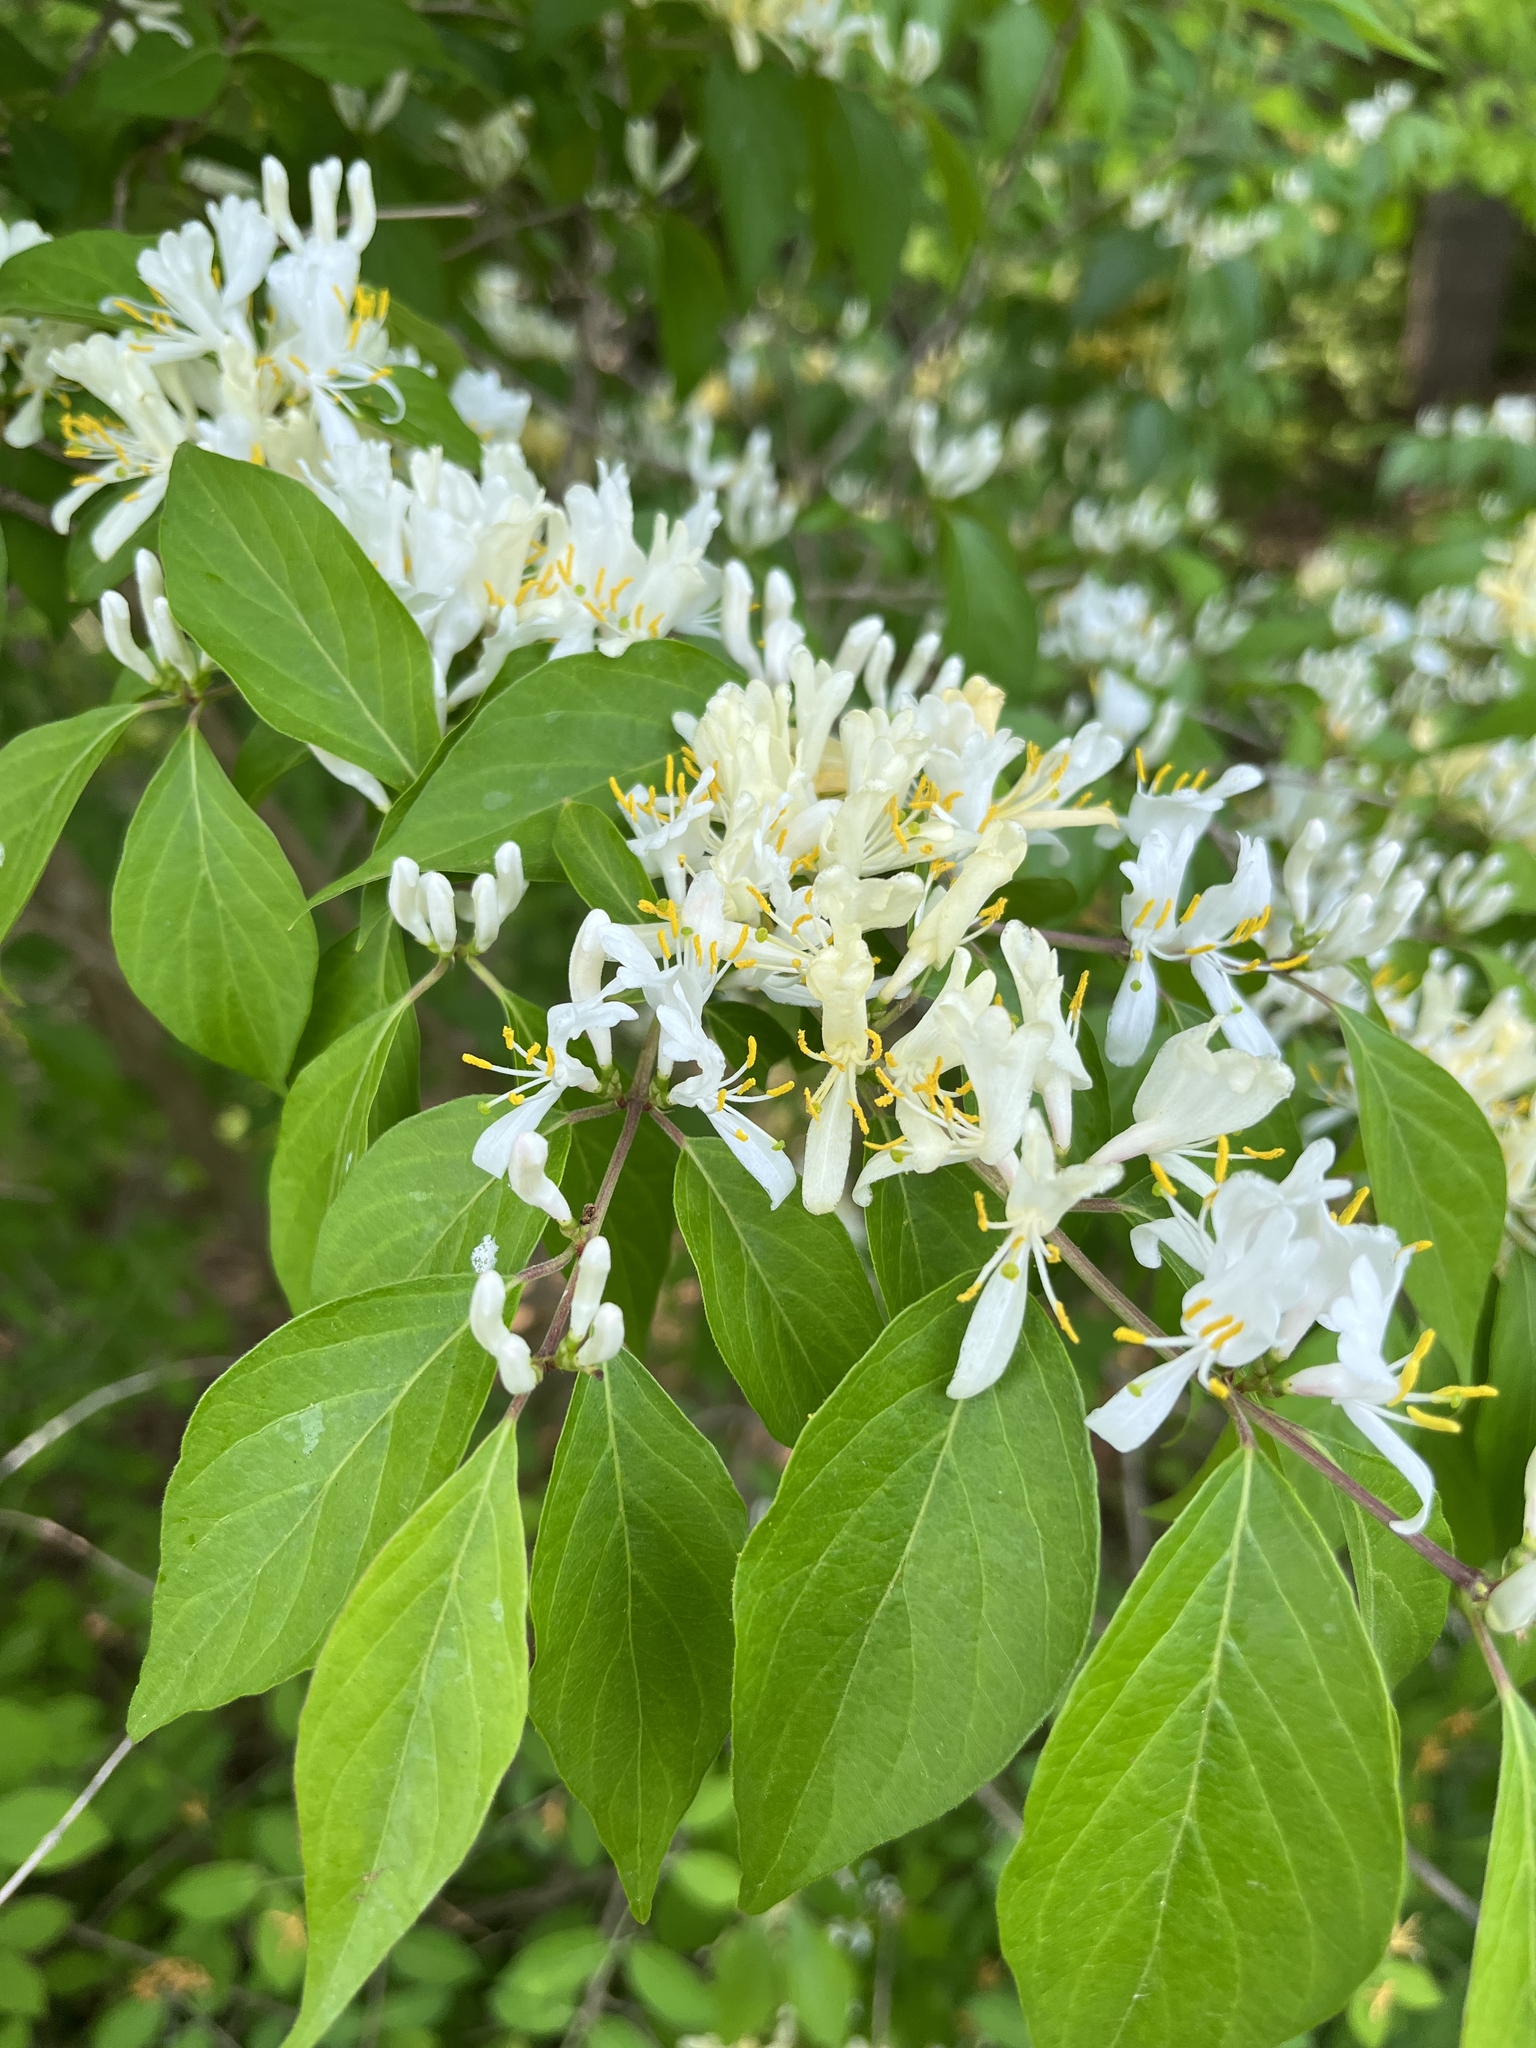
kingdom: Plantae
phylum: Tracheophyta
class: Magnoliopsida
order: Dipsacales
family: Caprifoliaceae
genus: Lonicera
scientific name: Lonicera maackii
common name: Amur honeysuckle
